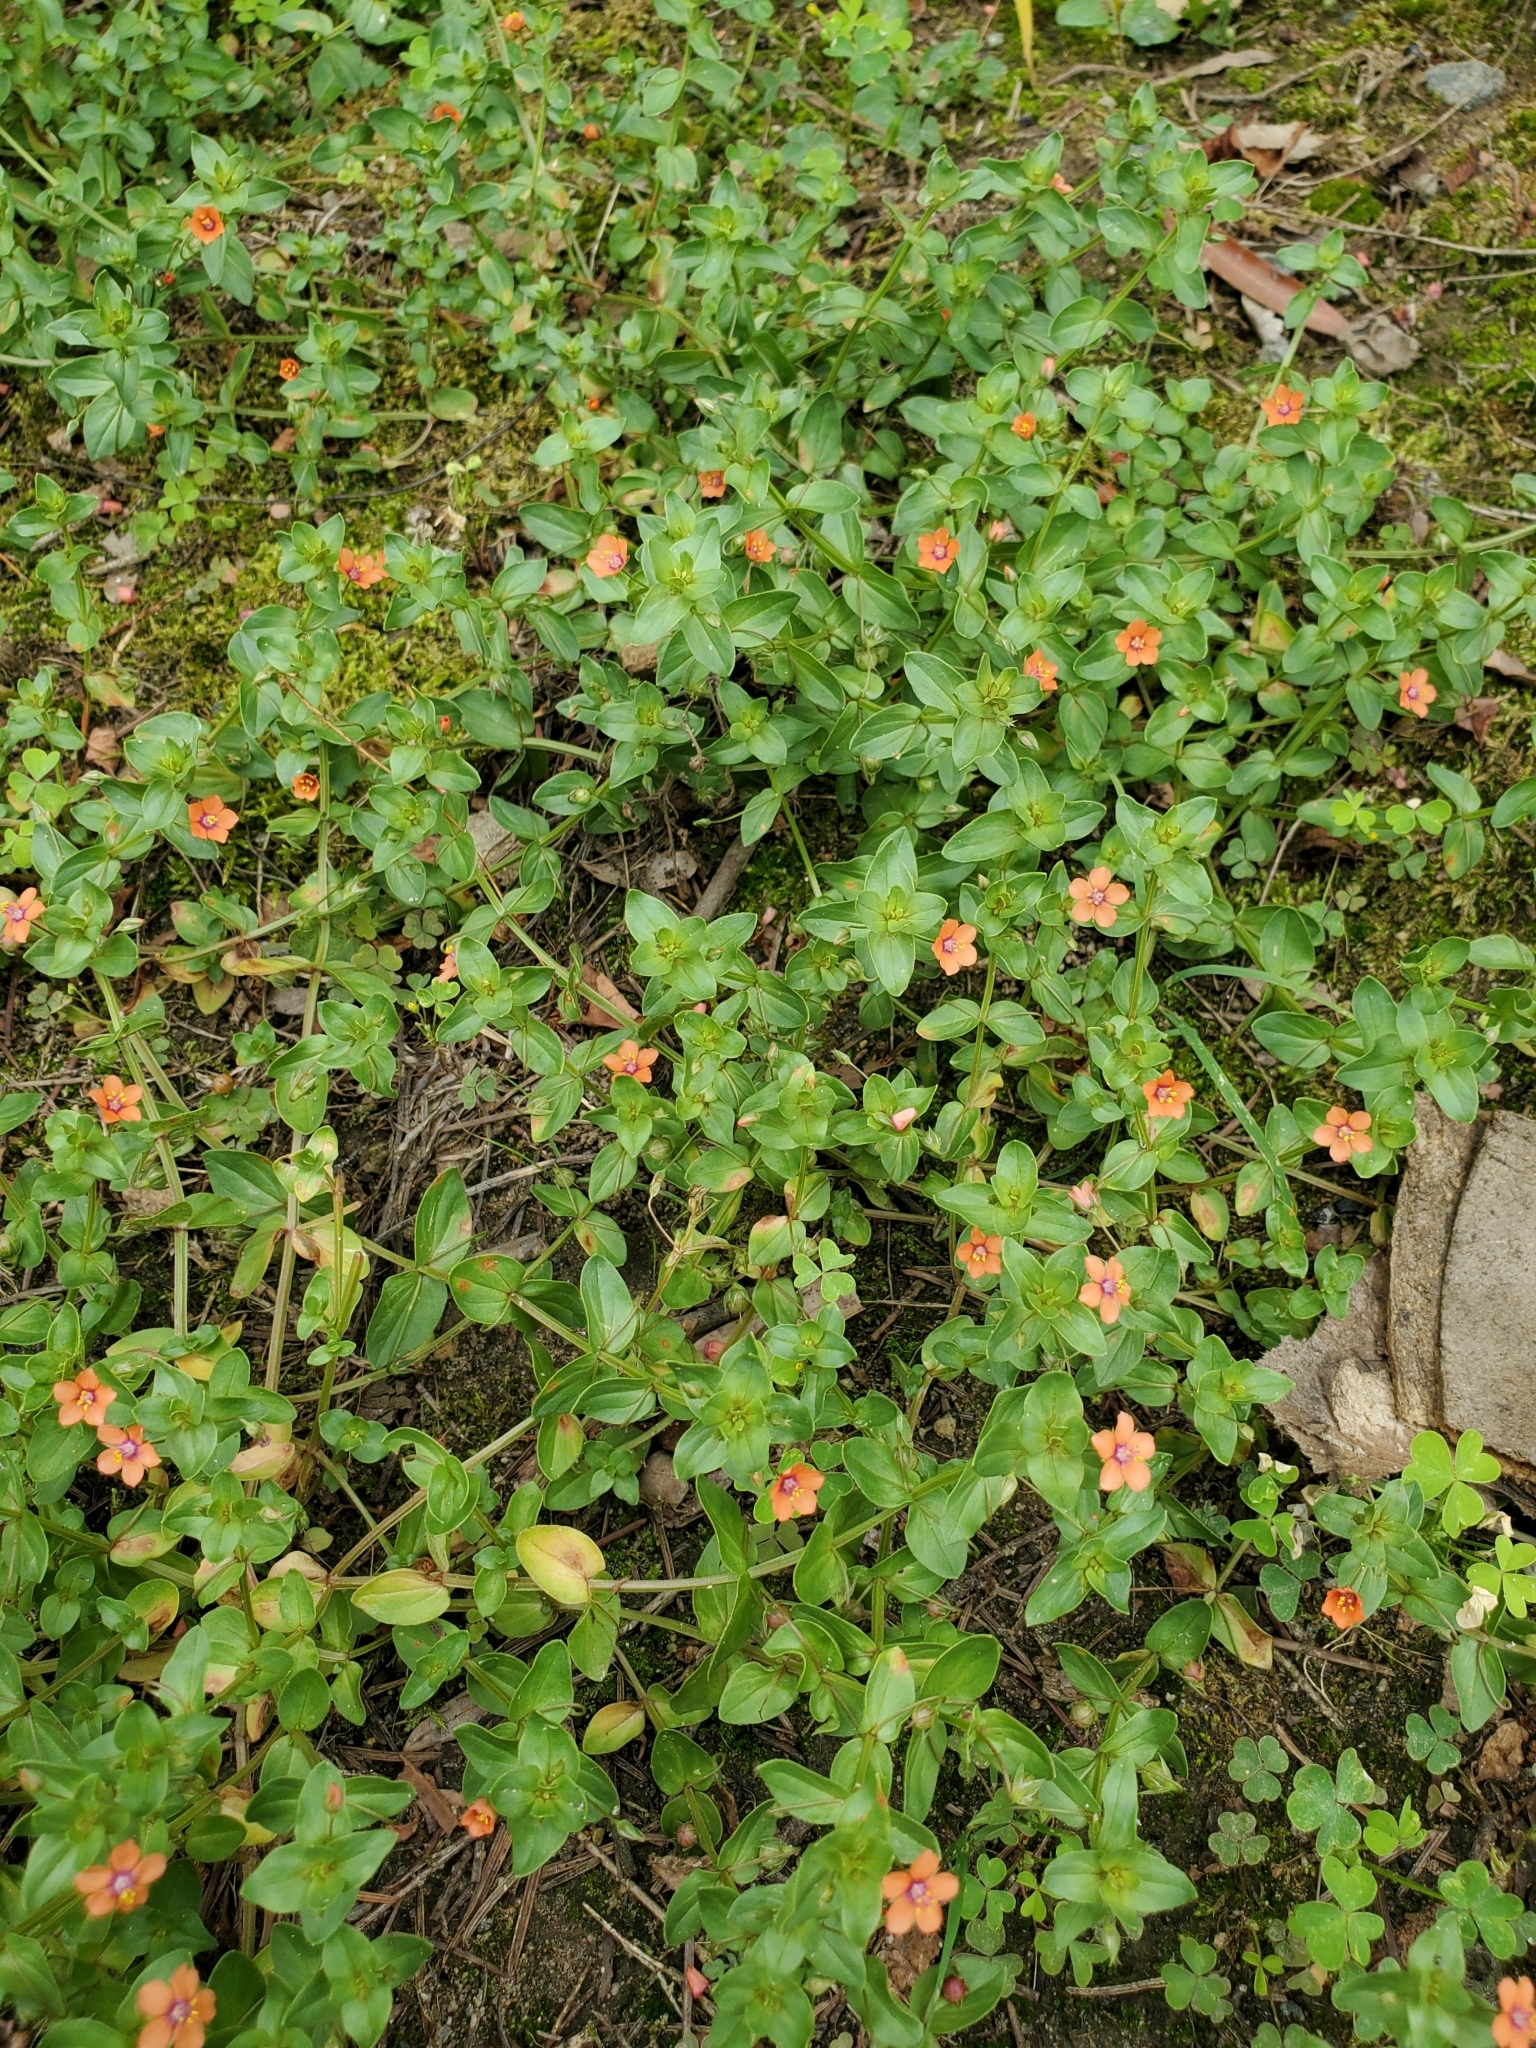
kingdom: Plantae
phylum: Tracheophyta
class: Magnoliopsida
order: Ericales
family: Primulaceae
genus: Lysimachia
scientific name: Lysimachia arvensis
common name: Scarlet pimpernel
